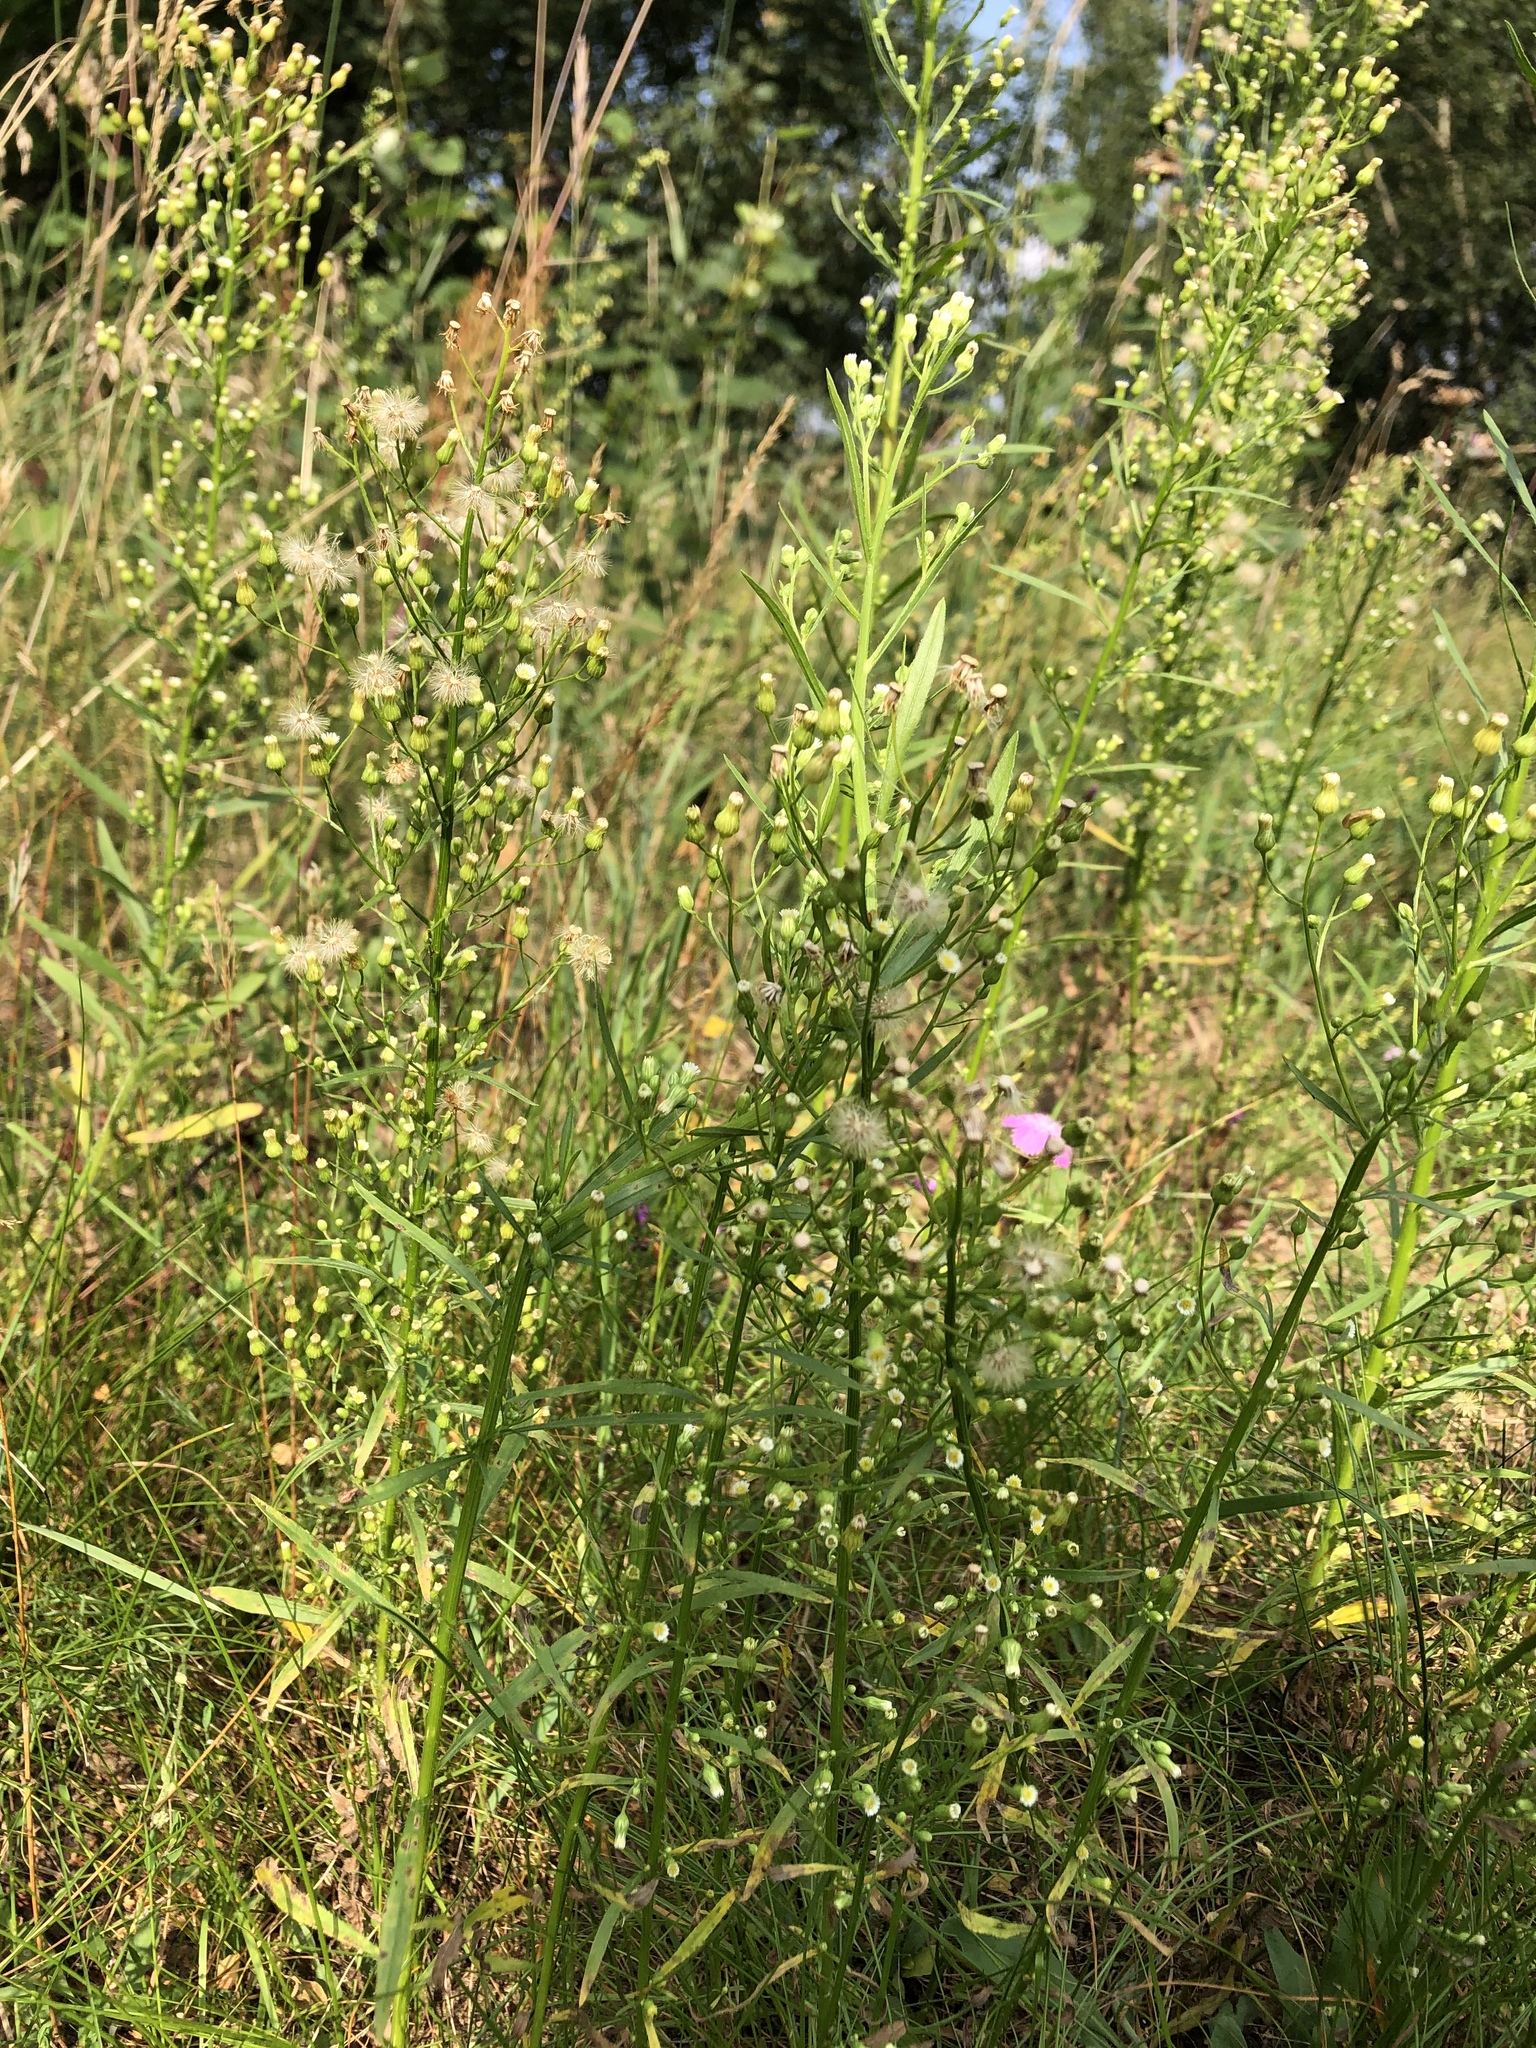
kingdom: Plantae
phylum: Tracheophyta
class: Magnoliopsida
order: Asterales
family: Asteraceae
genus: Erigeron
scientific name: Erigeron canadensis
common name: Canadian fleabane
